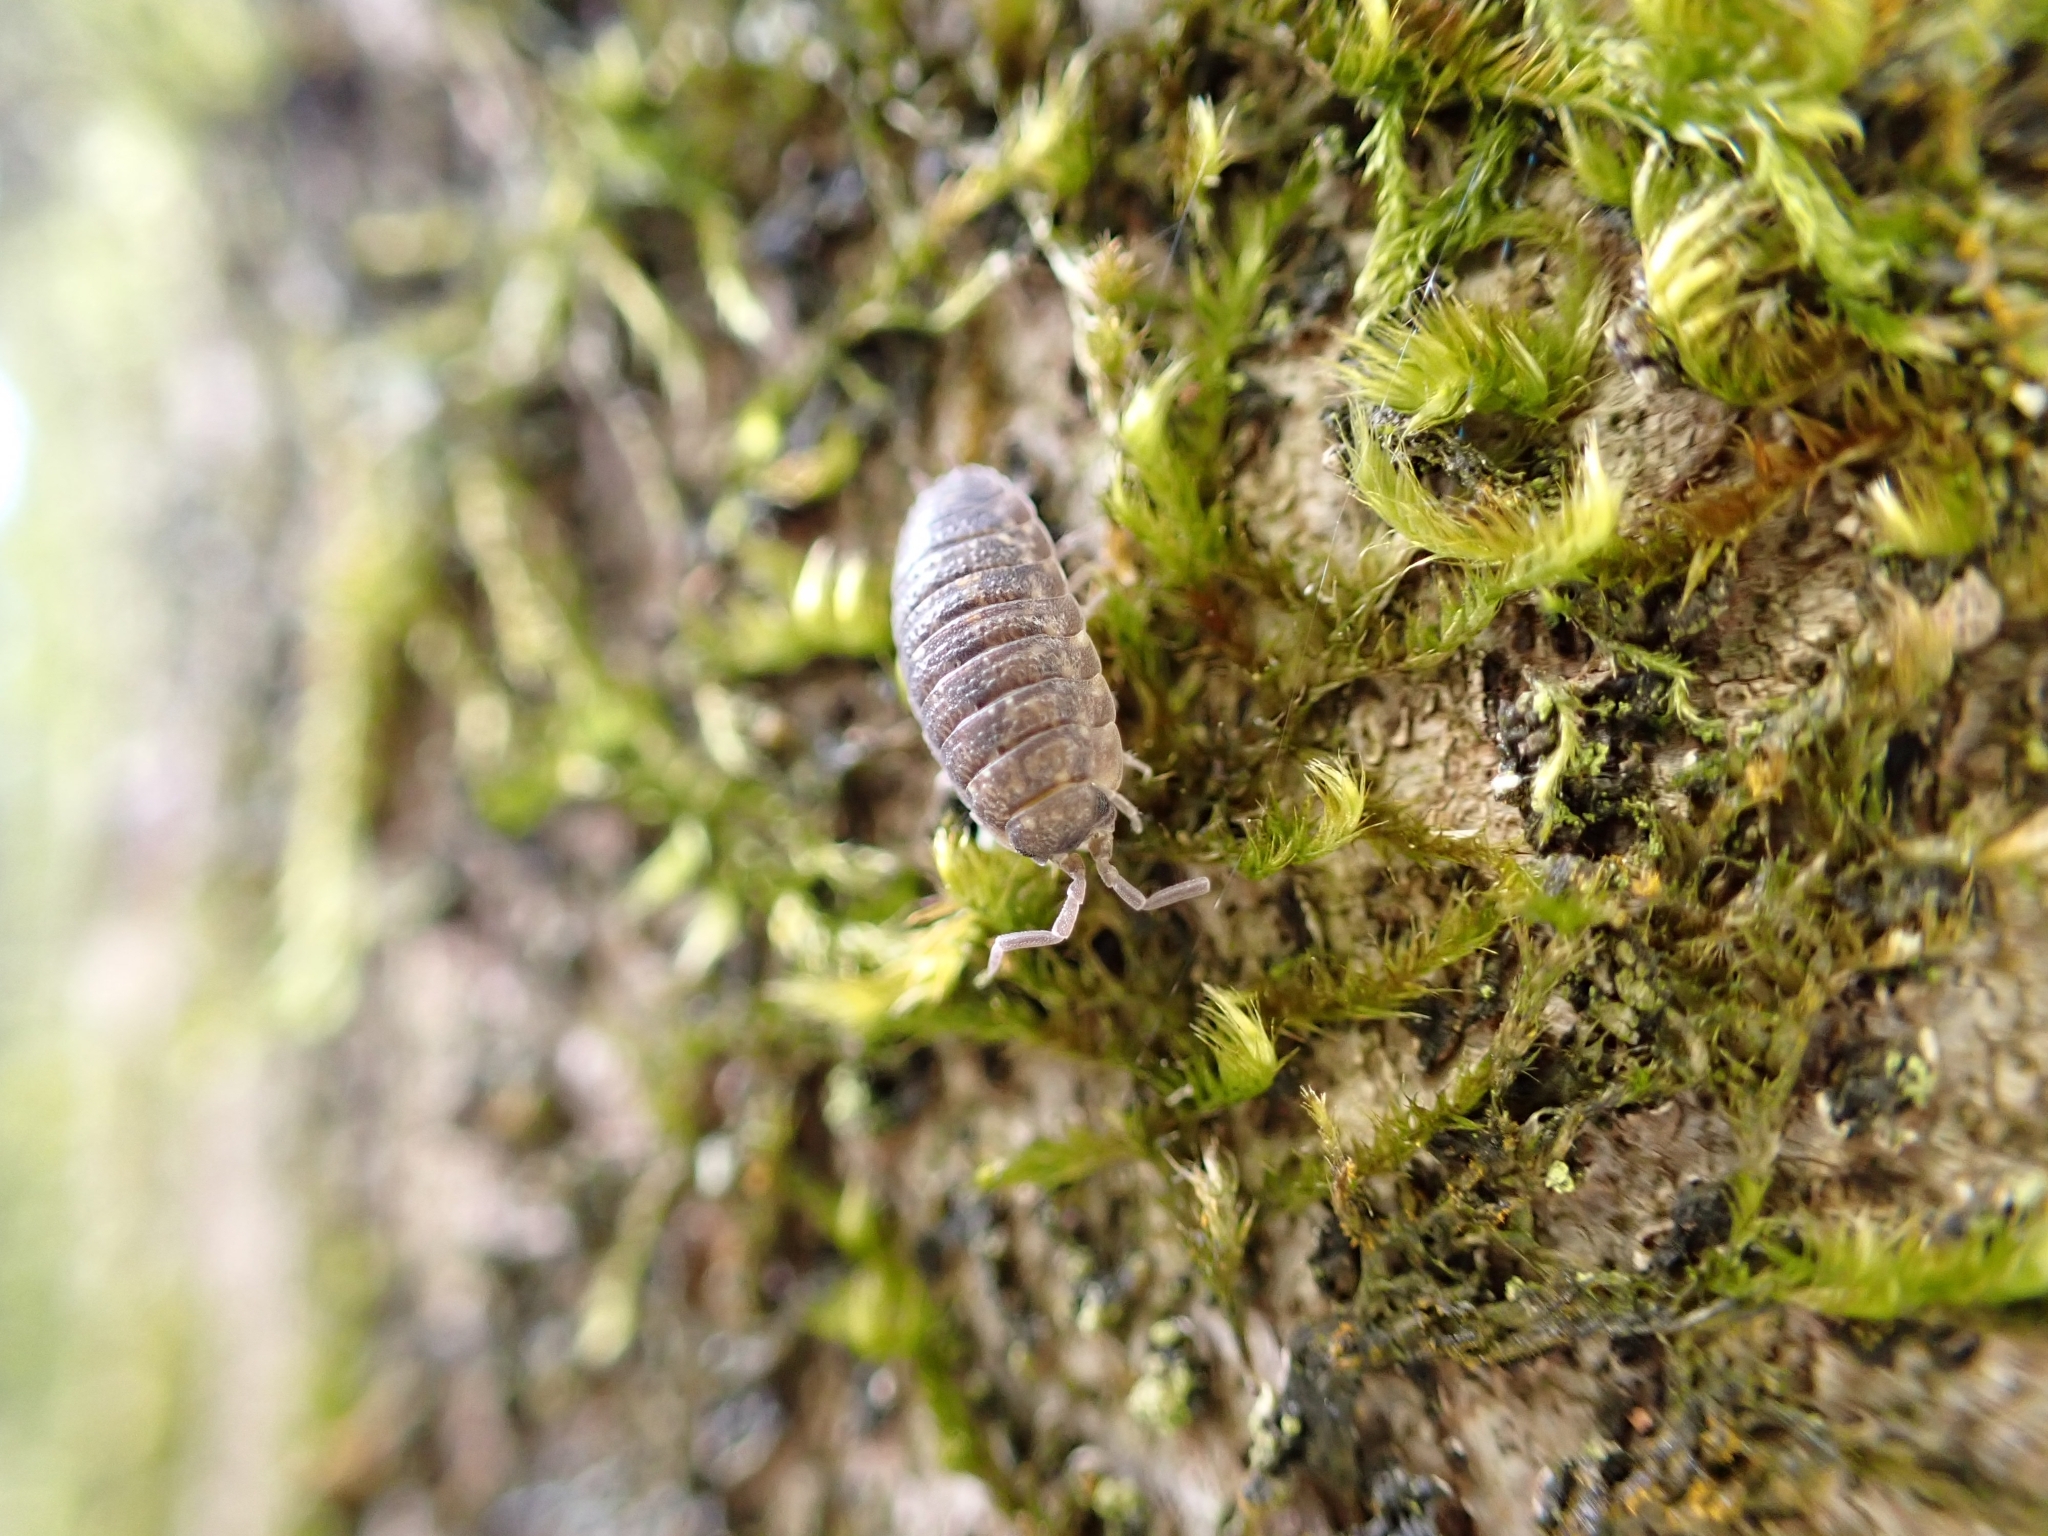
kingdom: Animalia
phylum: Arthropoda
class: Malacostraca
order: Isopoda
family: Porcellionidae
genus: Porcellio
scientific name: Porcellio scaber
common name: Common rough woodlouse
